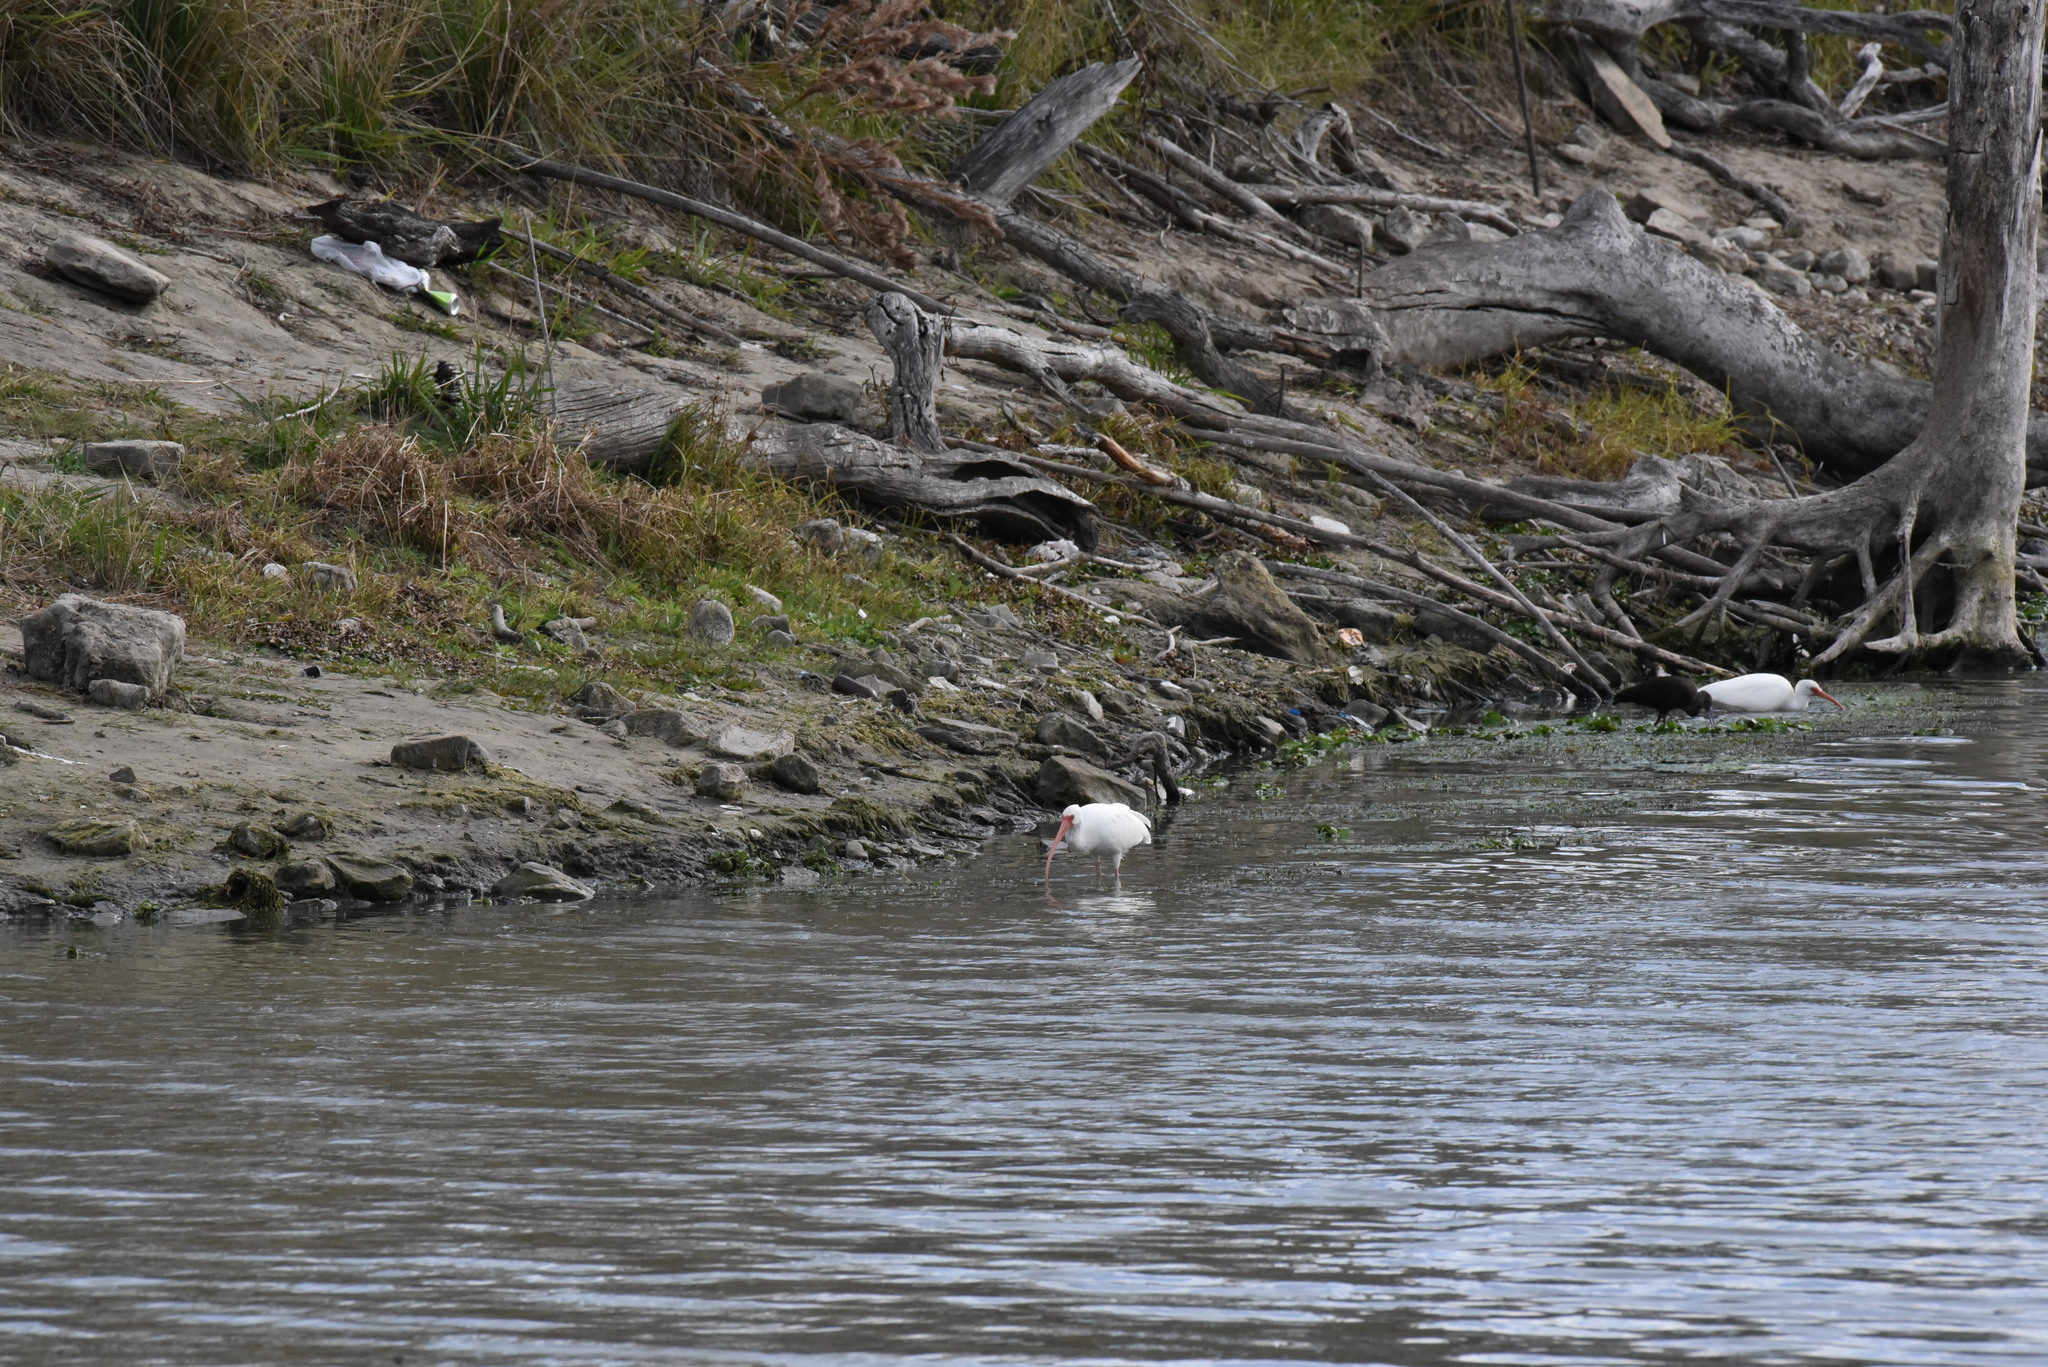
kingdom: Animalia
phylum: Chordata
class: Aves
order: Pelecaniformes
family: Threskiornithidae
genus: Eudocimus
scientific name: Eudocimus albus
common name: White ibis
